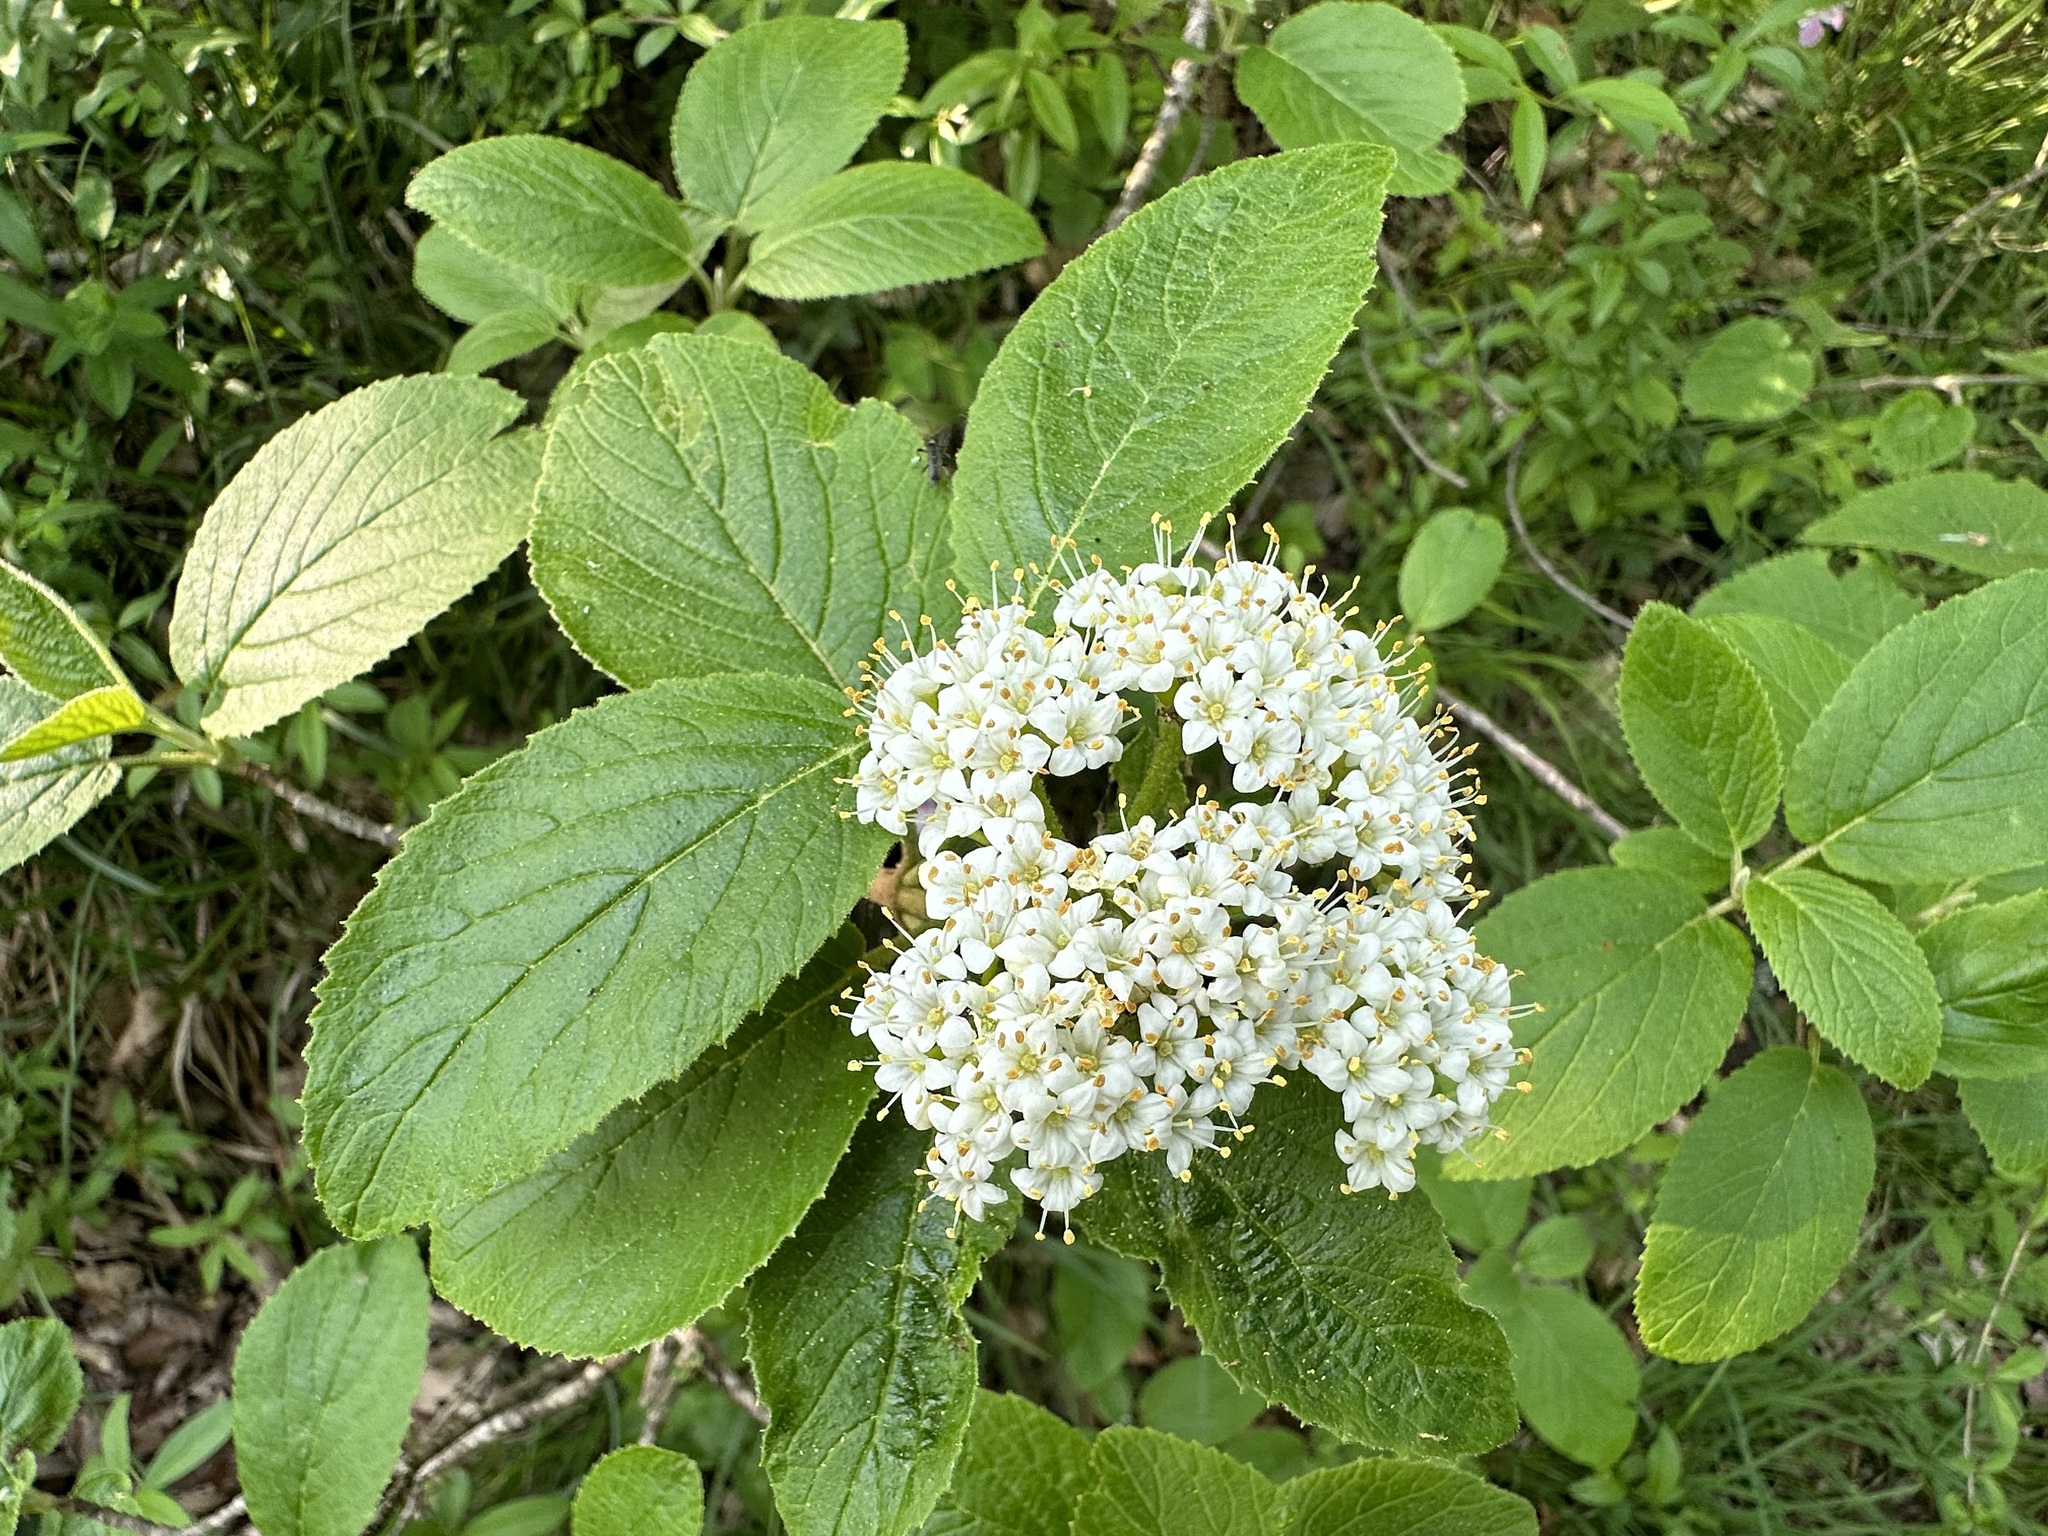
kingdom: Plantae
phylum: Tracheophyta
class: Magnoliopsida
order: Dipsacales
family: Viburnaceae
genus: Viburnum
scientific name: Viburnum lantana
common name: Wayfaring tree
